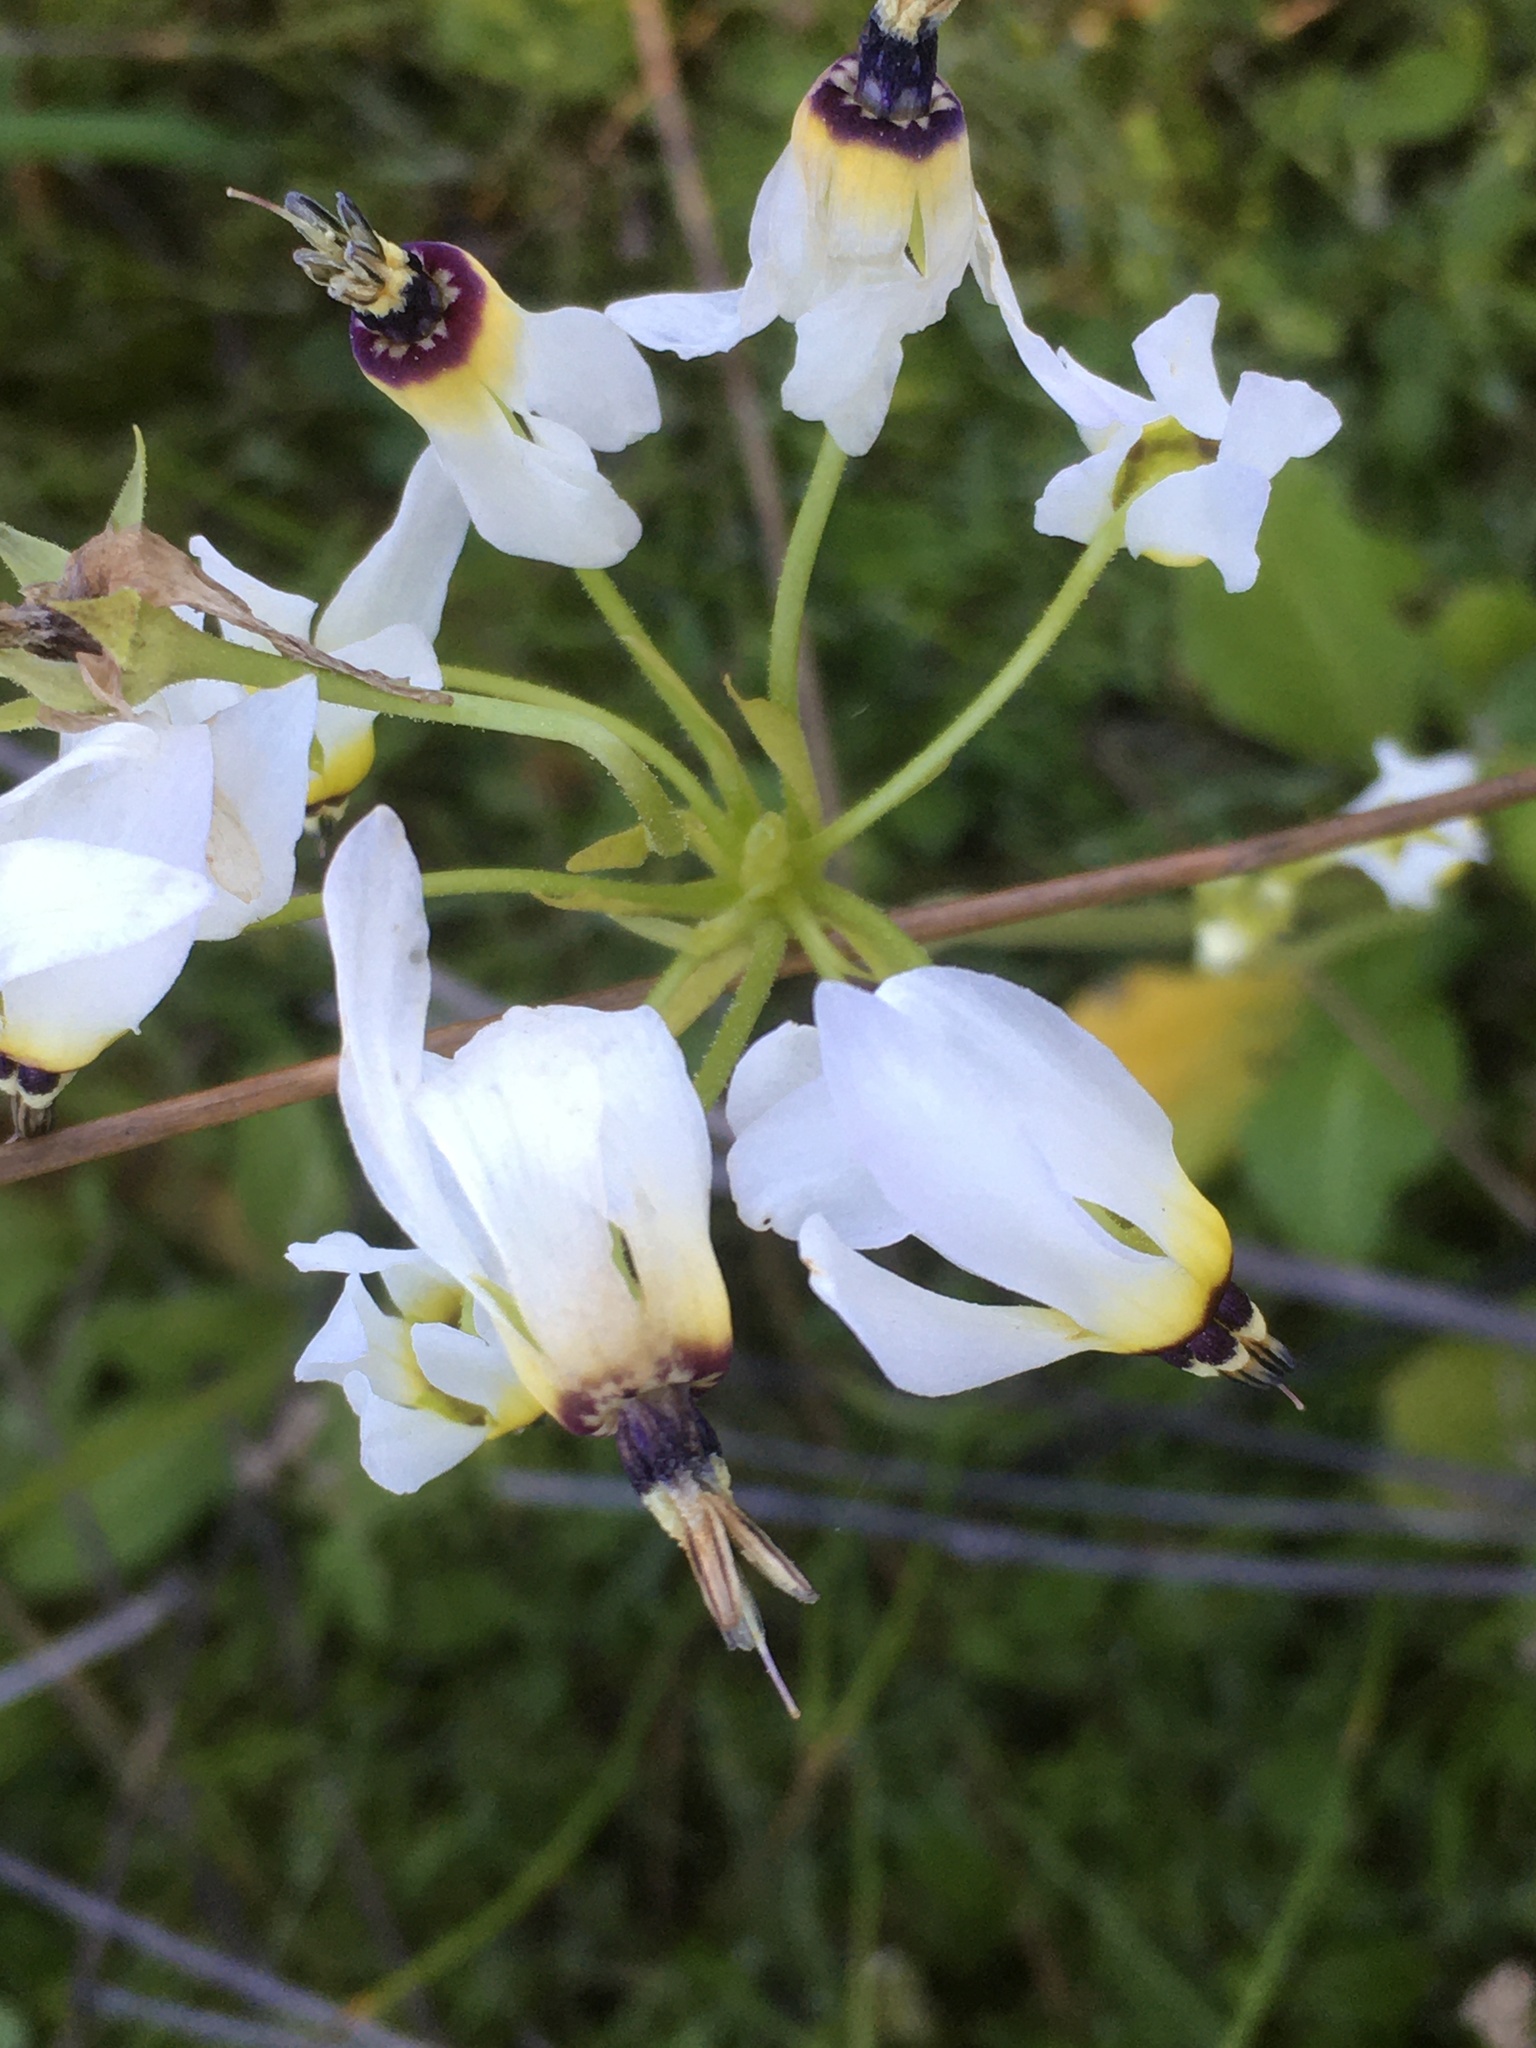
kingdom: Plantae
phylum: Tracheophyta
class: Magnoliopsida
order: Ericales
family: Primulaceae
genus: Dodecatheon
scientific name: Dodecatheon clevelandii
